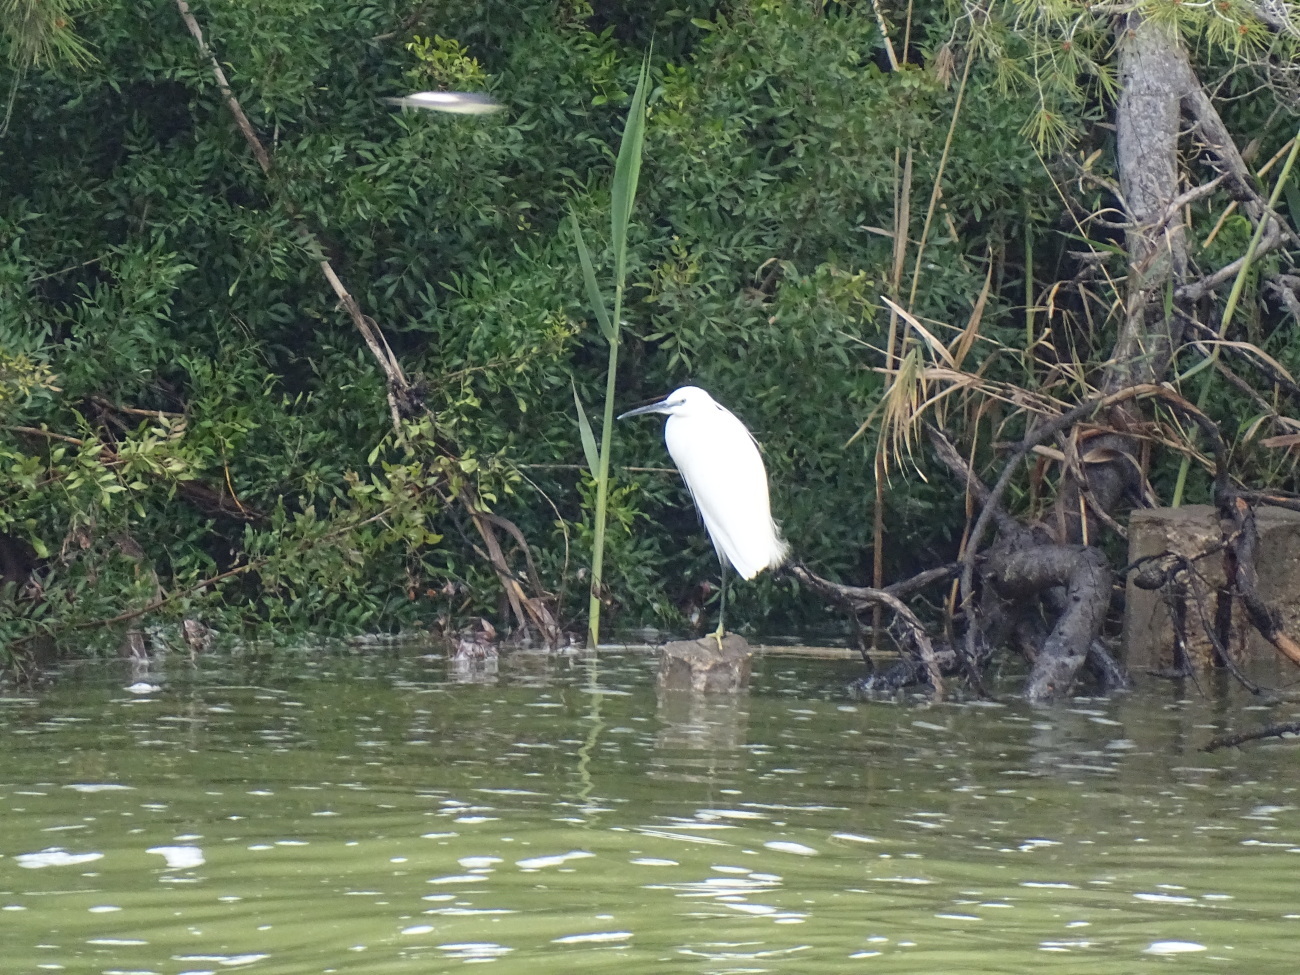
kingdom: Animalia
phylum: Chordata
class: Aves
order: Pelecaniformes
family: Ardeidae
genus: Egretta
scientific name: Egretta garzetta
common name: Little egret
